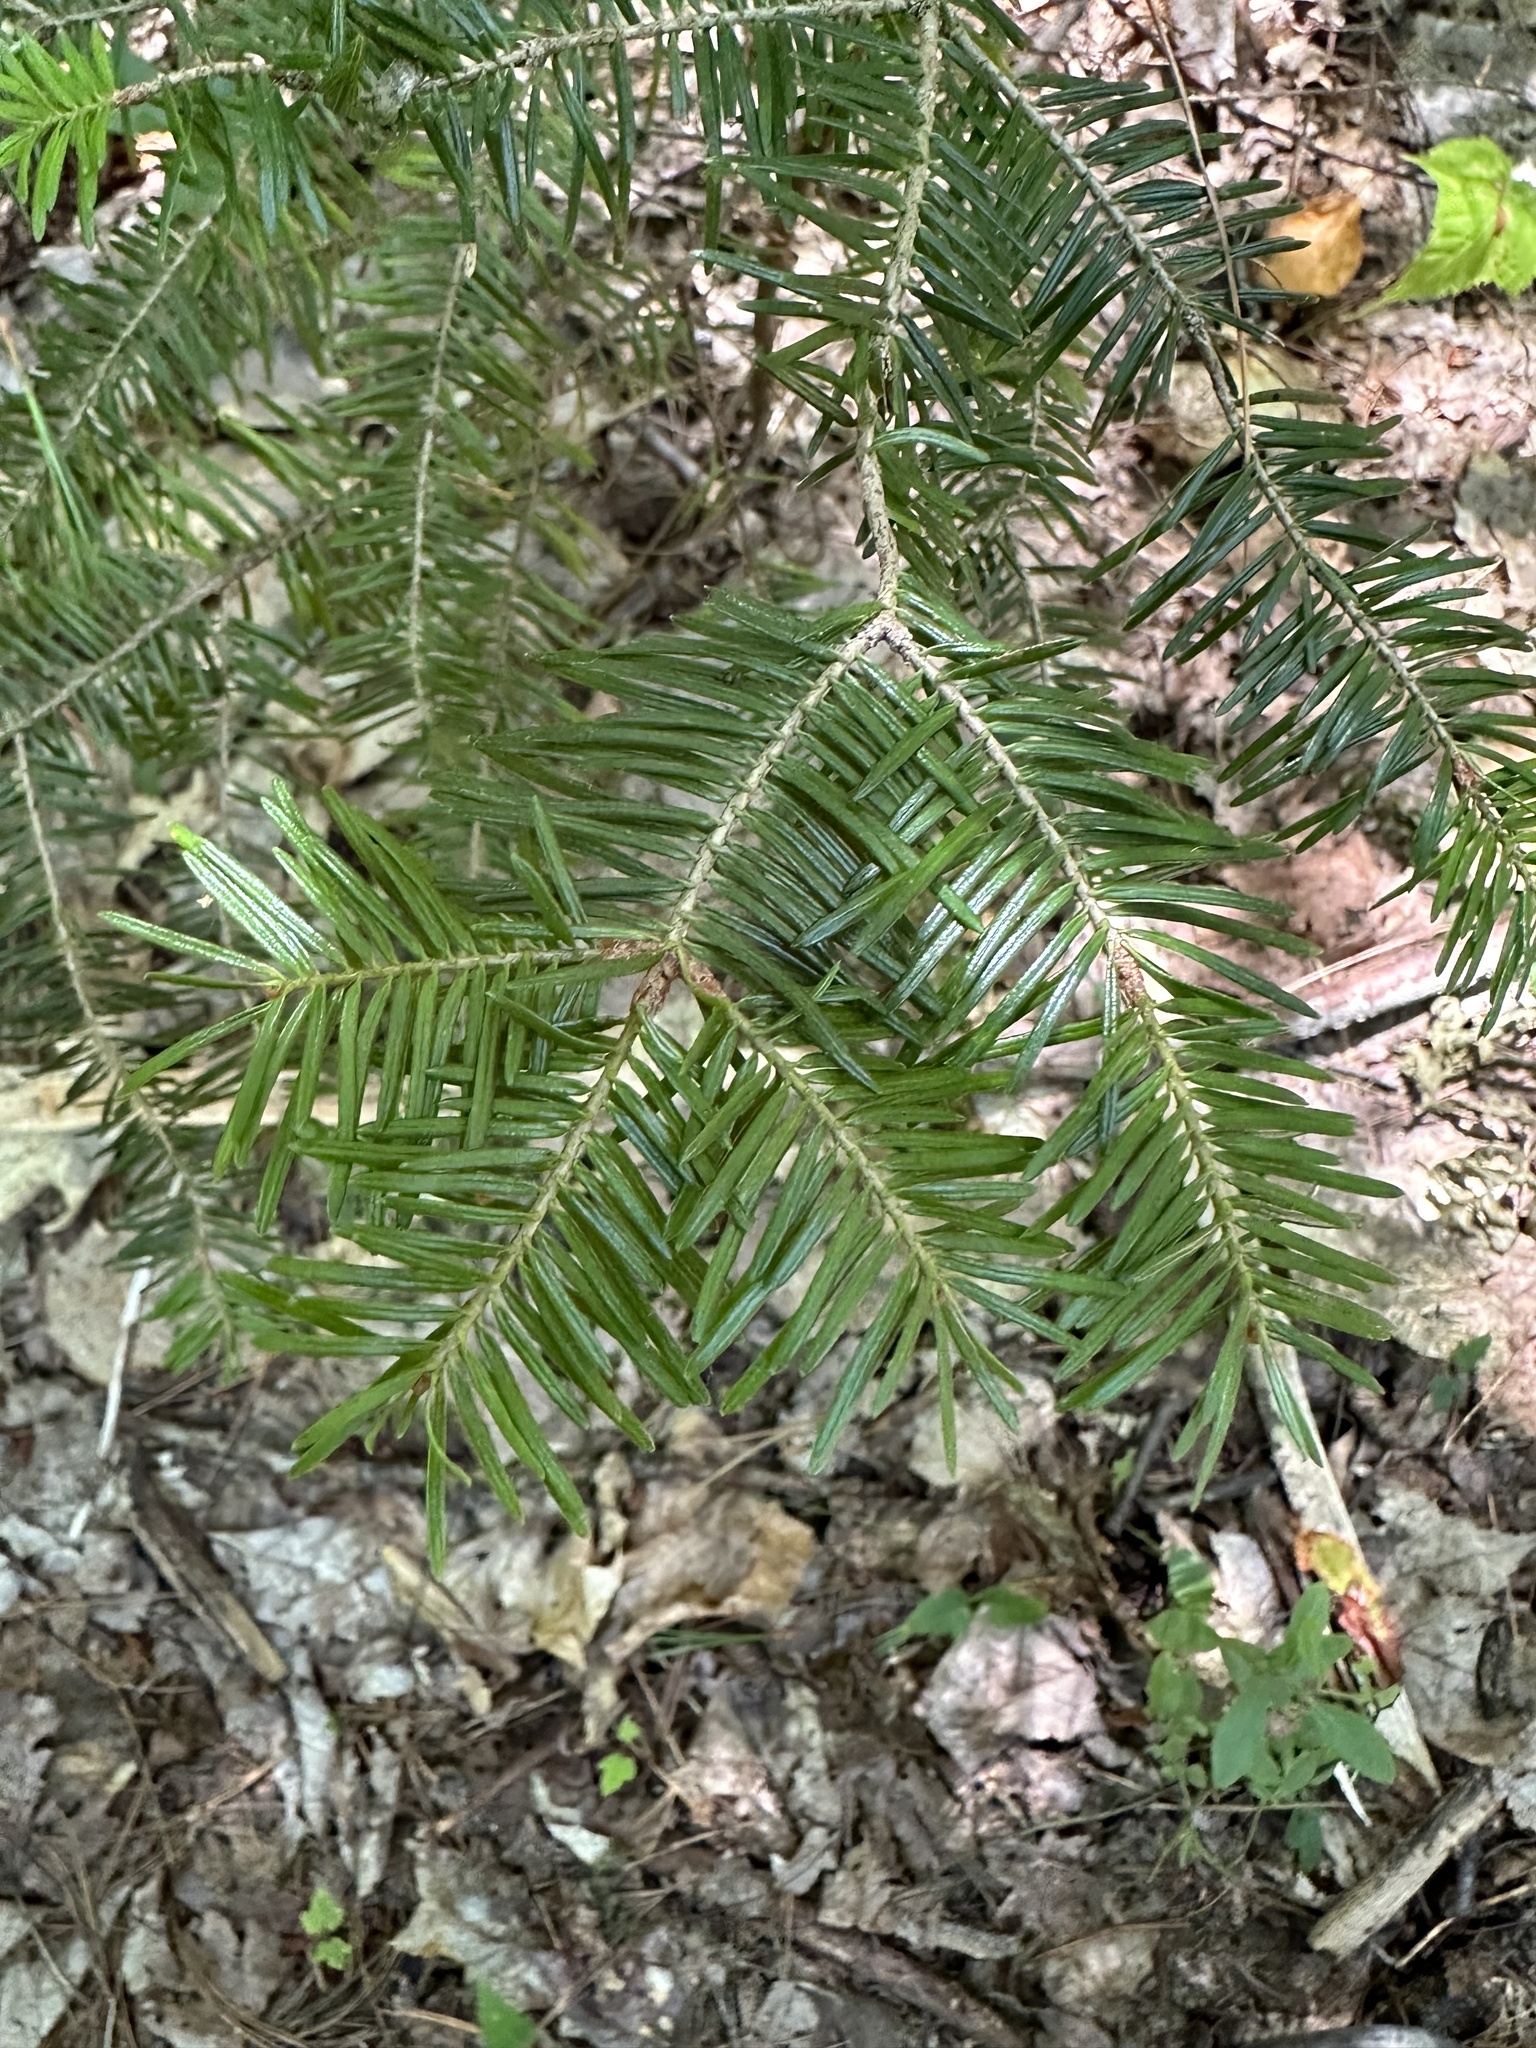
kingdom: Plantae
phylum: Tracheophyta
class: Pinopsida
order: Pinales
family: Pinaceae
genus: Abies
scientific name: Abies balsamea
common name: Balsam fir
